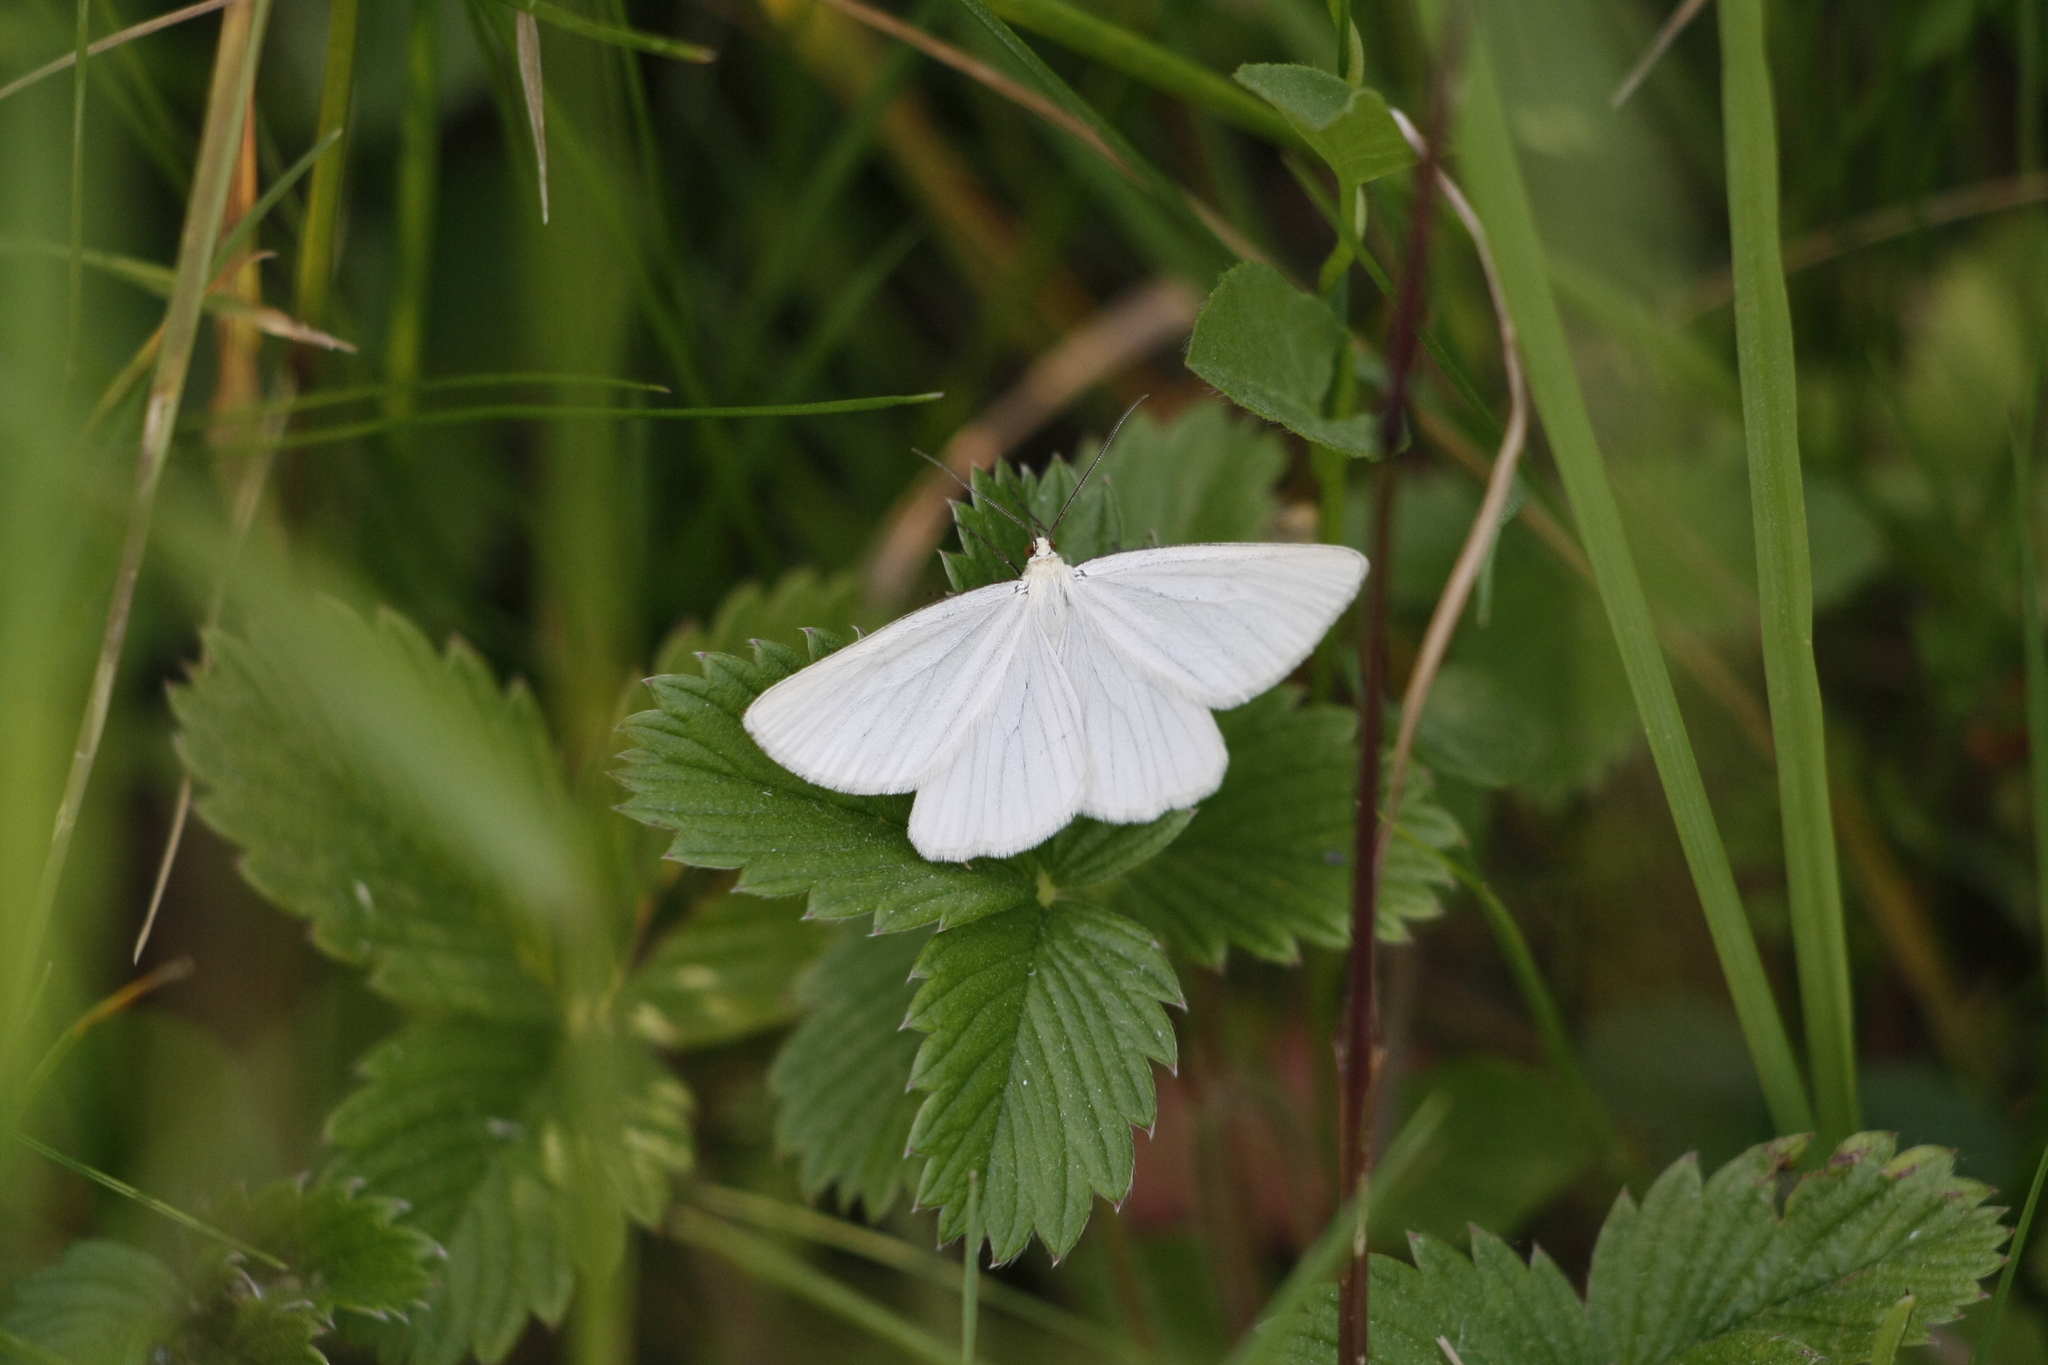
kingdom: Animalia
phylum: Arthropoda
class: Insecta
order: Lepidoptera
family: Geometridae
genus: Siona
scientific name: Siona lineata
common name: Black-veined moth
